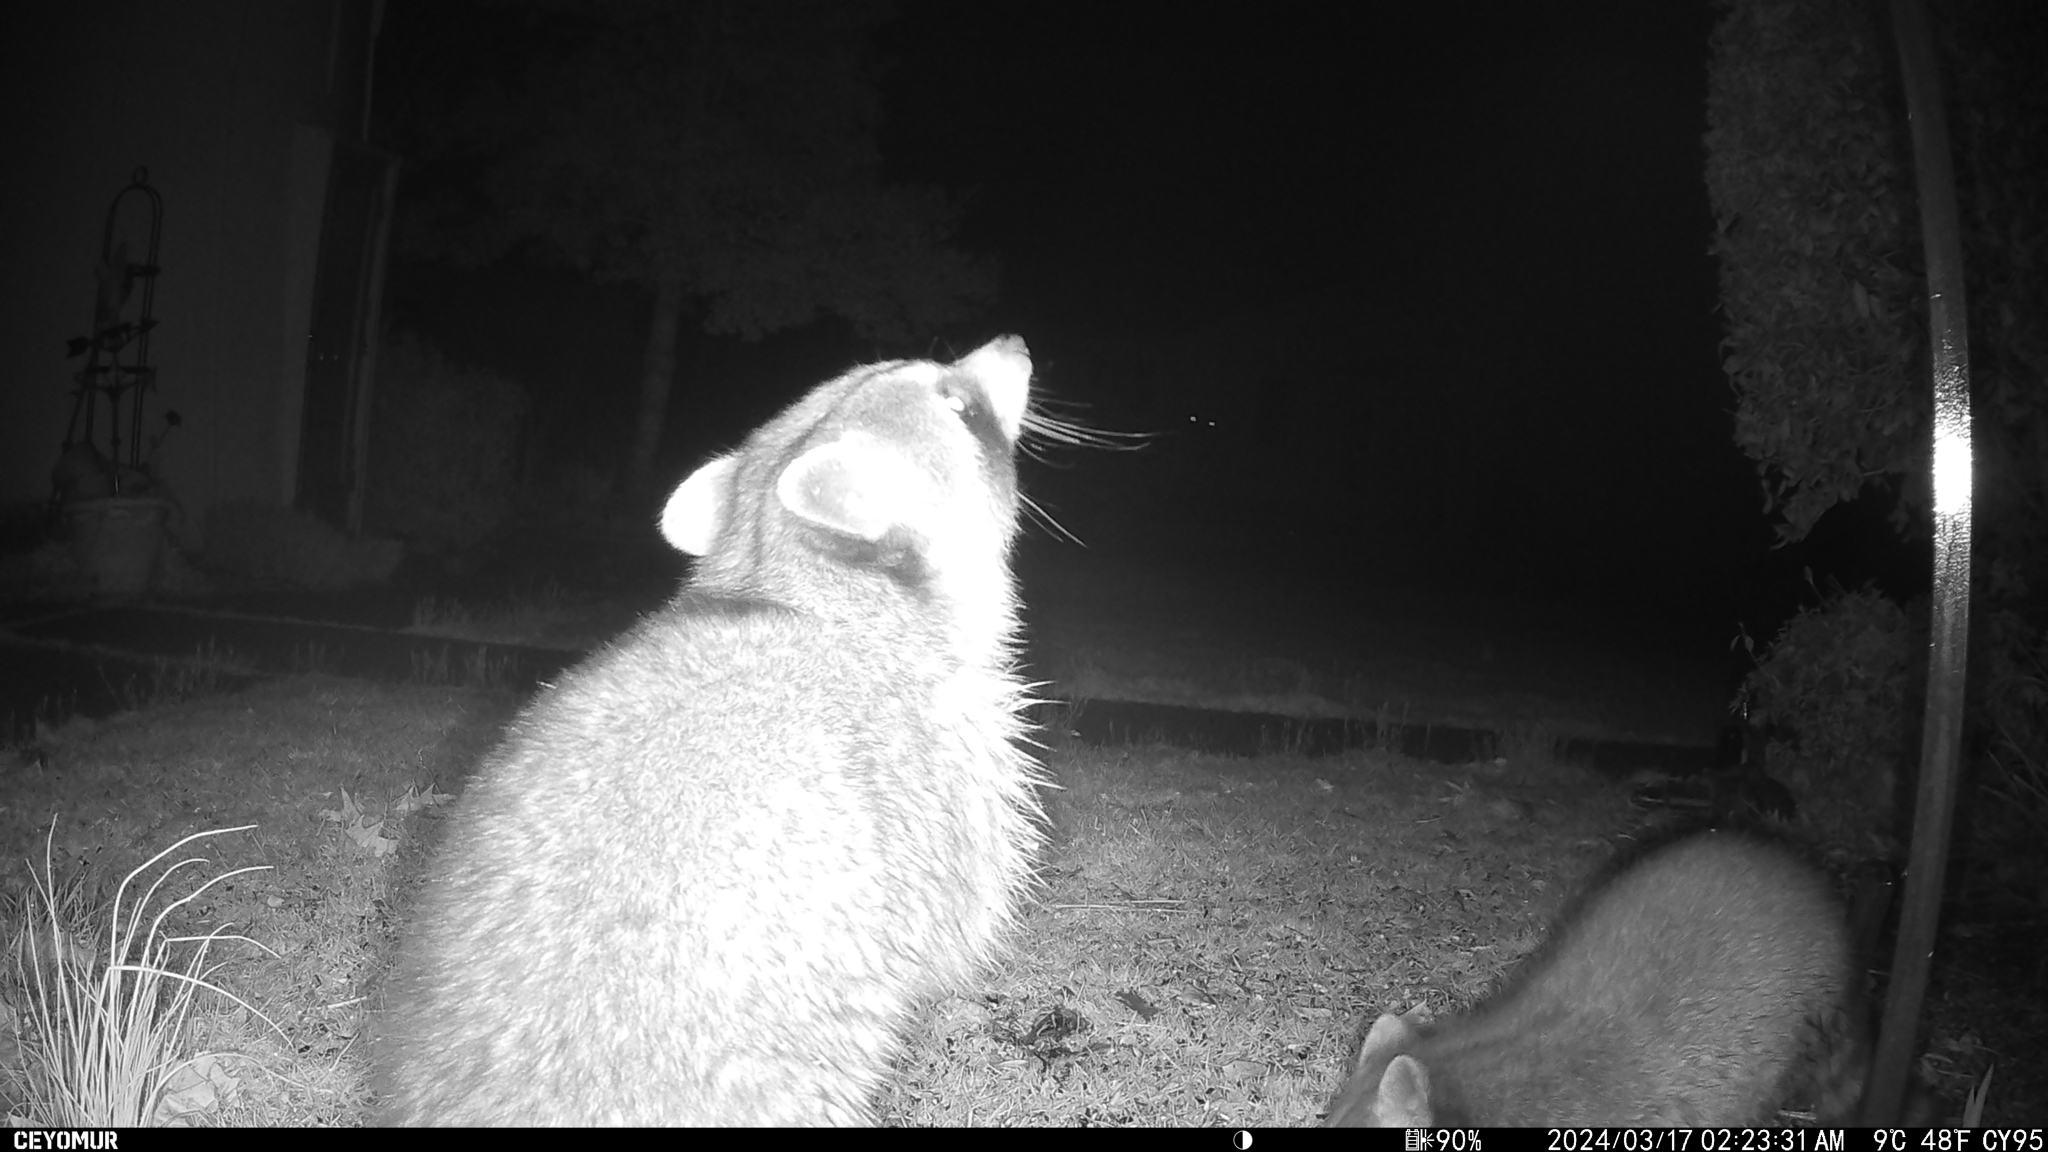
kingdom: Animalia
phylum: Chordata
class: Mammalia
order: Carnivora
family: Procyonidae
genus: Procyon
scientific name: Procyon lotor
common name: Raccoon
